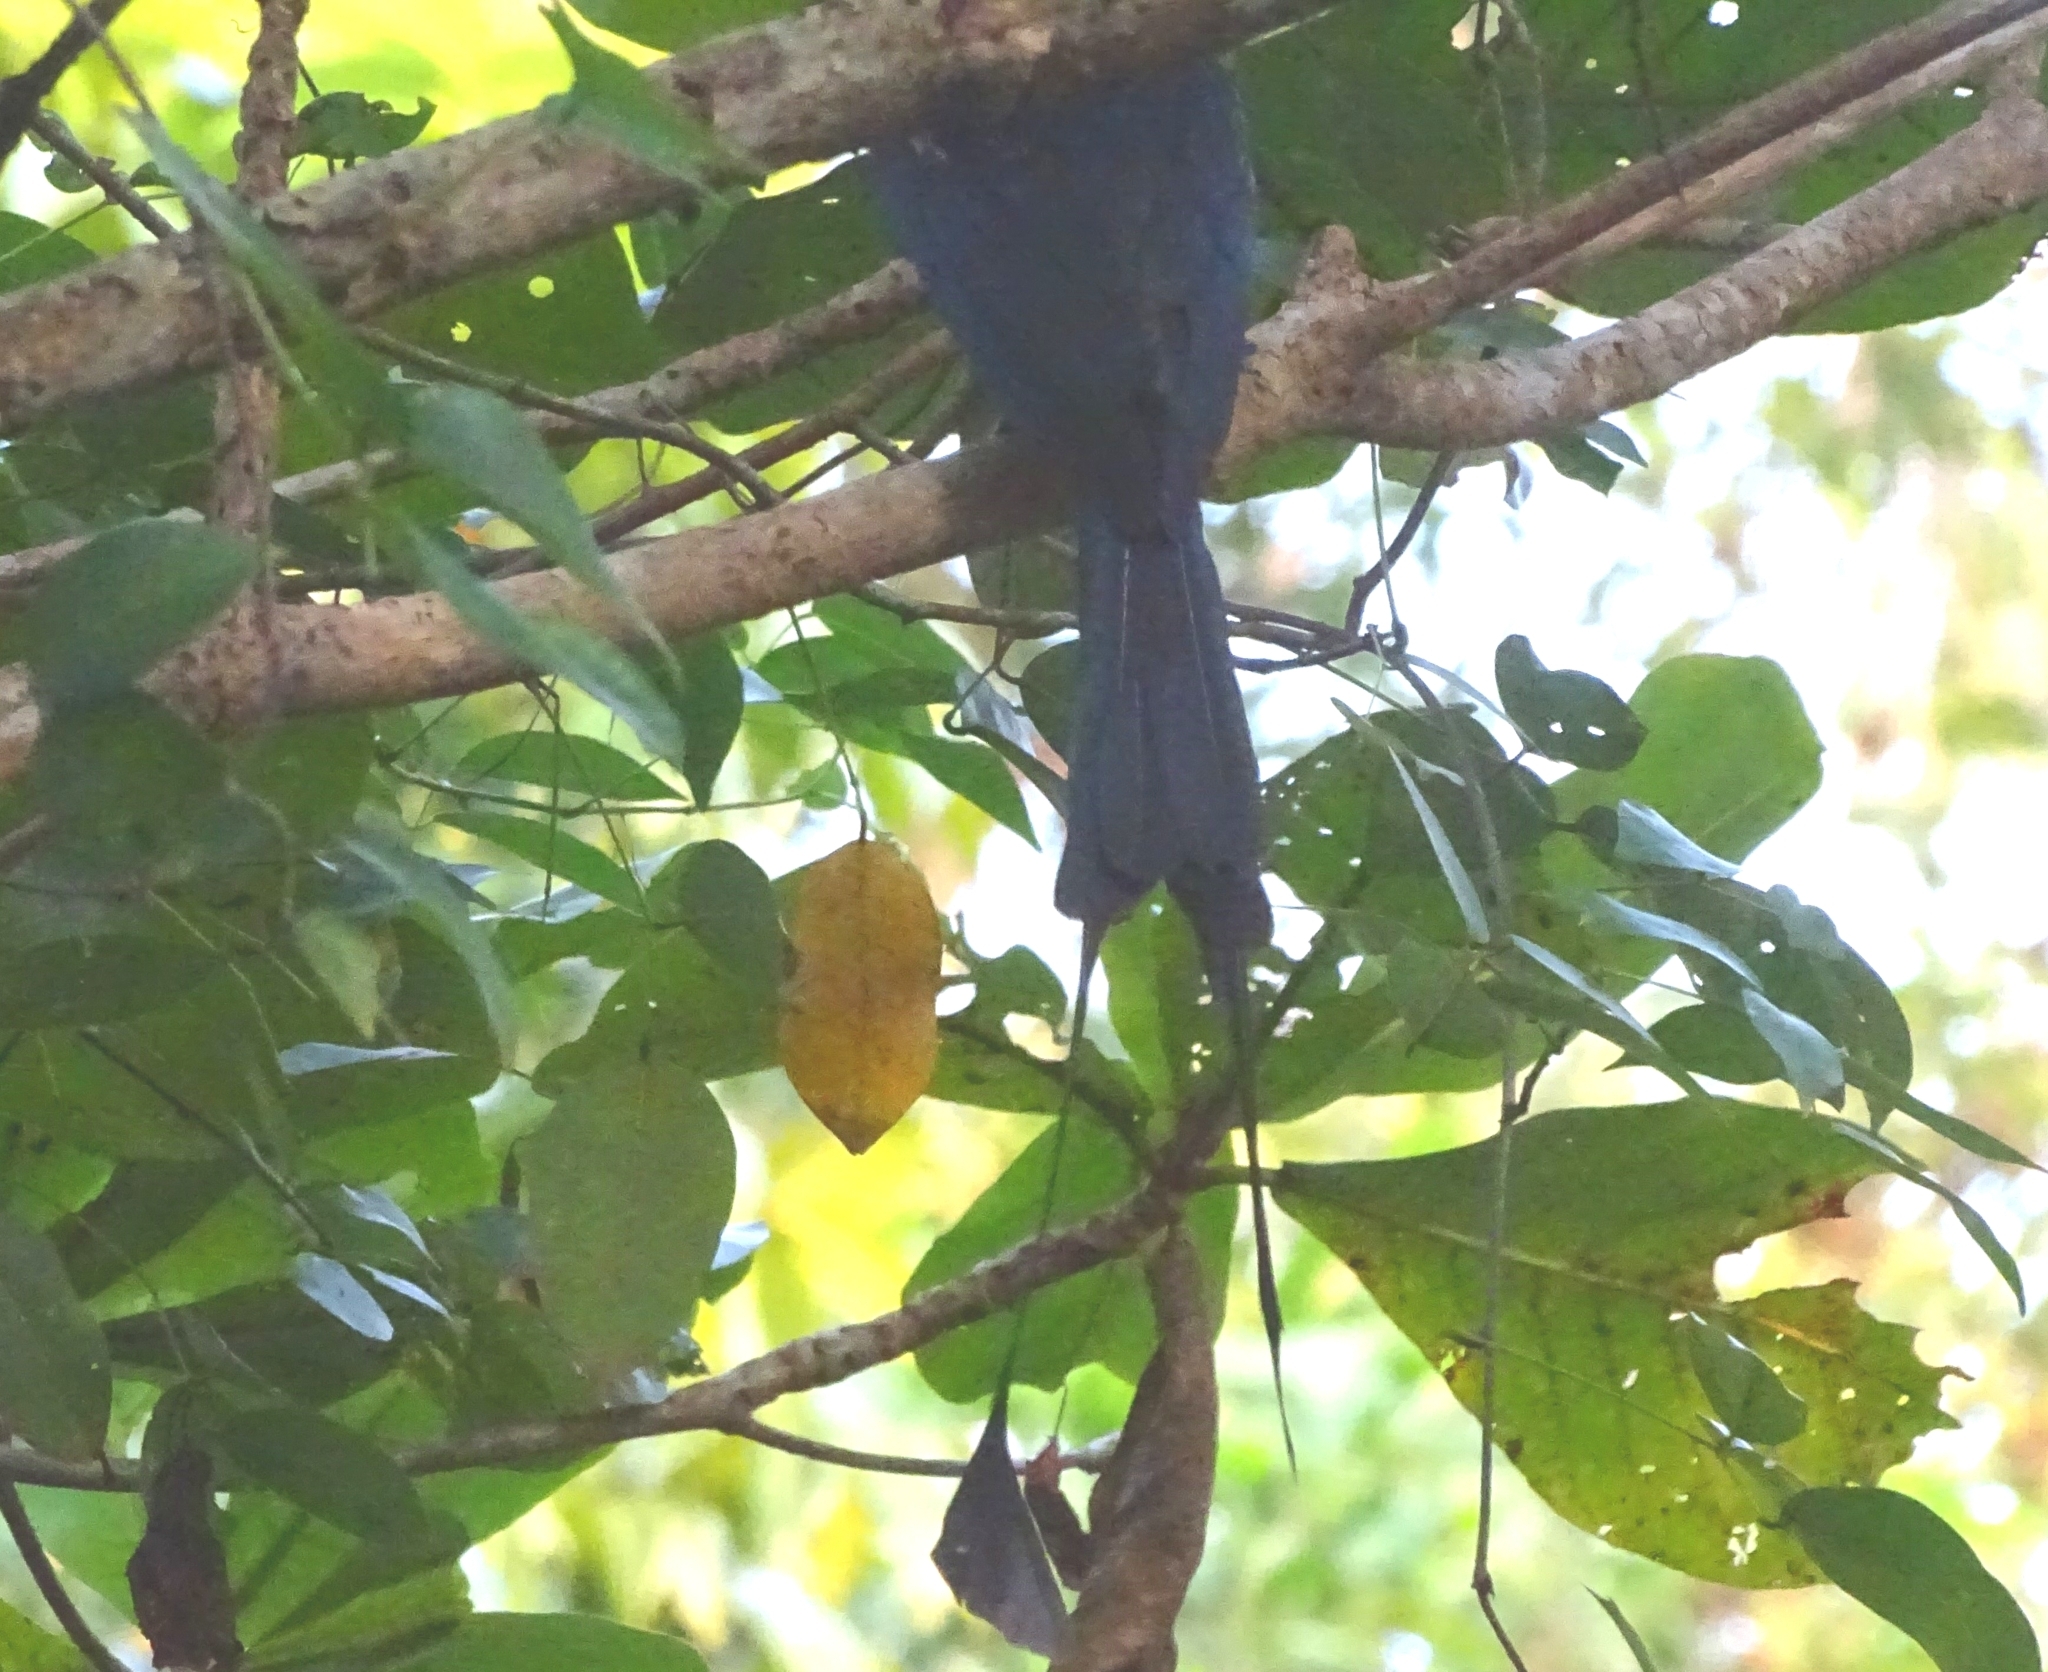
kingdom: Animalia
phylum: Chordata
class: Aves
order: Passeriformes
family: Dicruridae
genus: Dicrurus
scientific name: Dicrurus paradiseus
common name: Greater racket-tailed drongo
